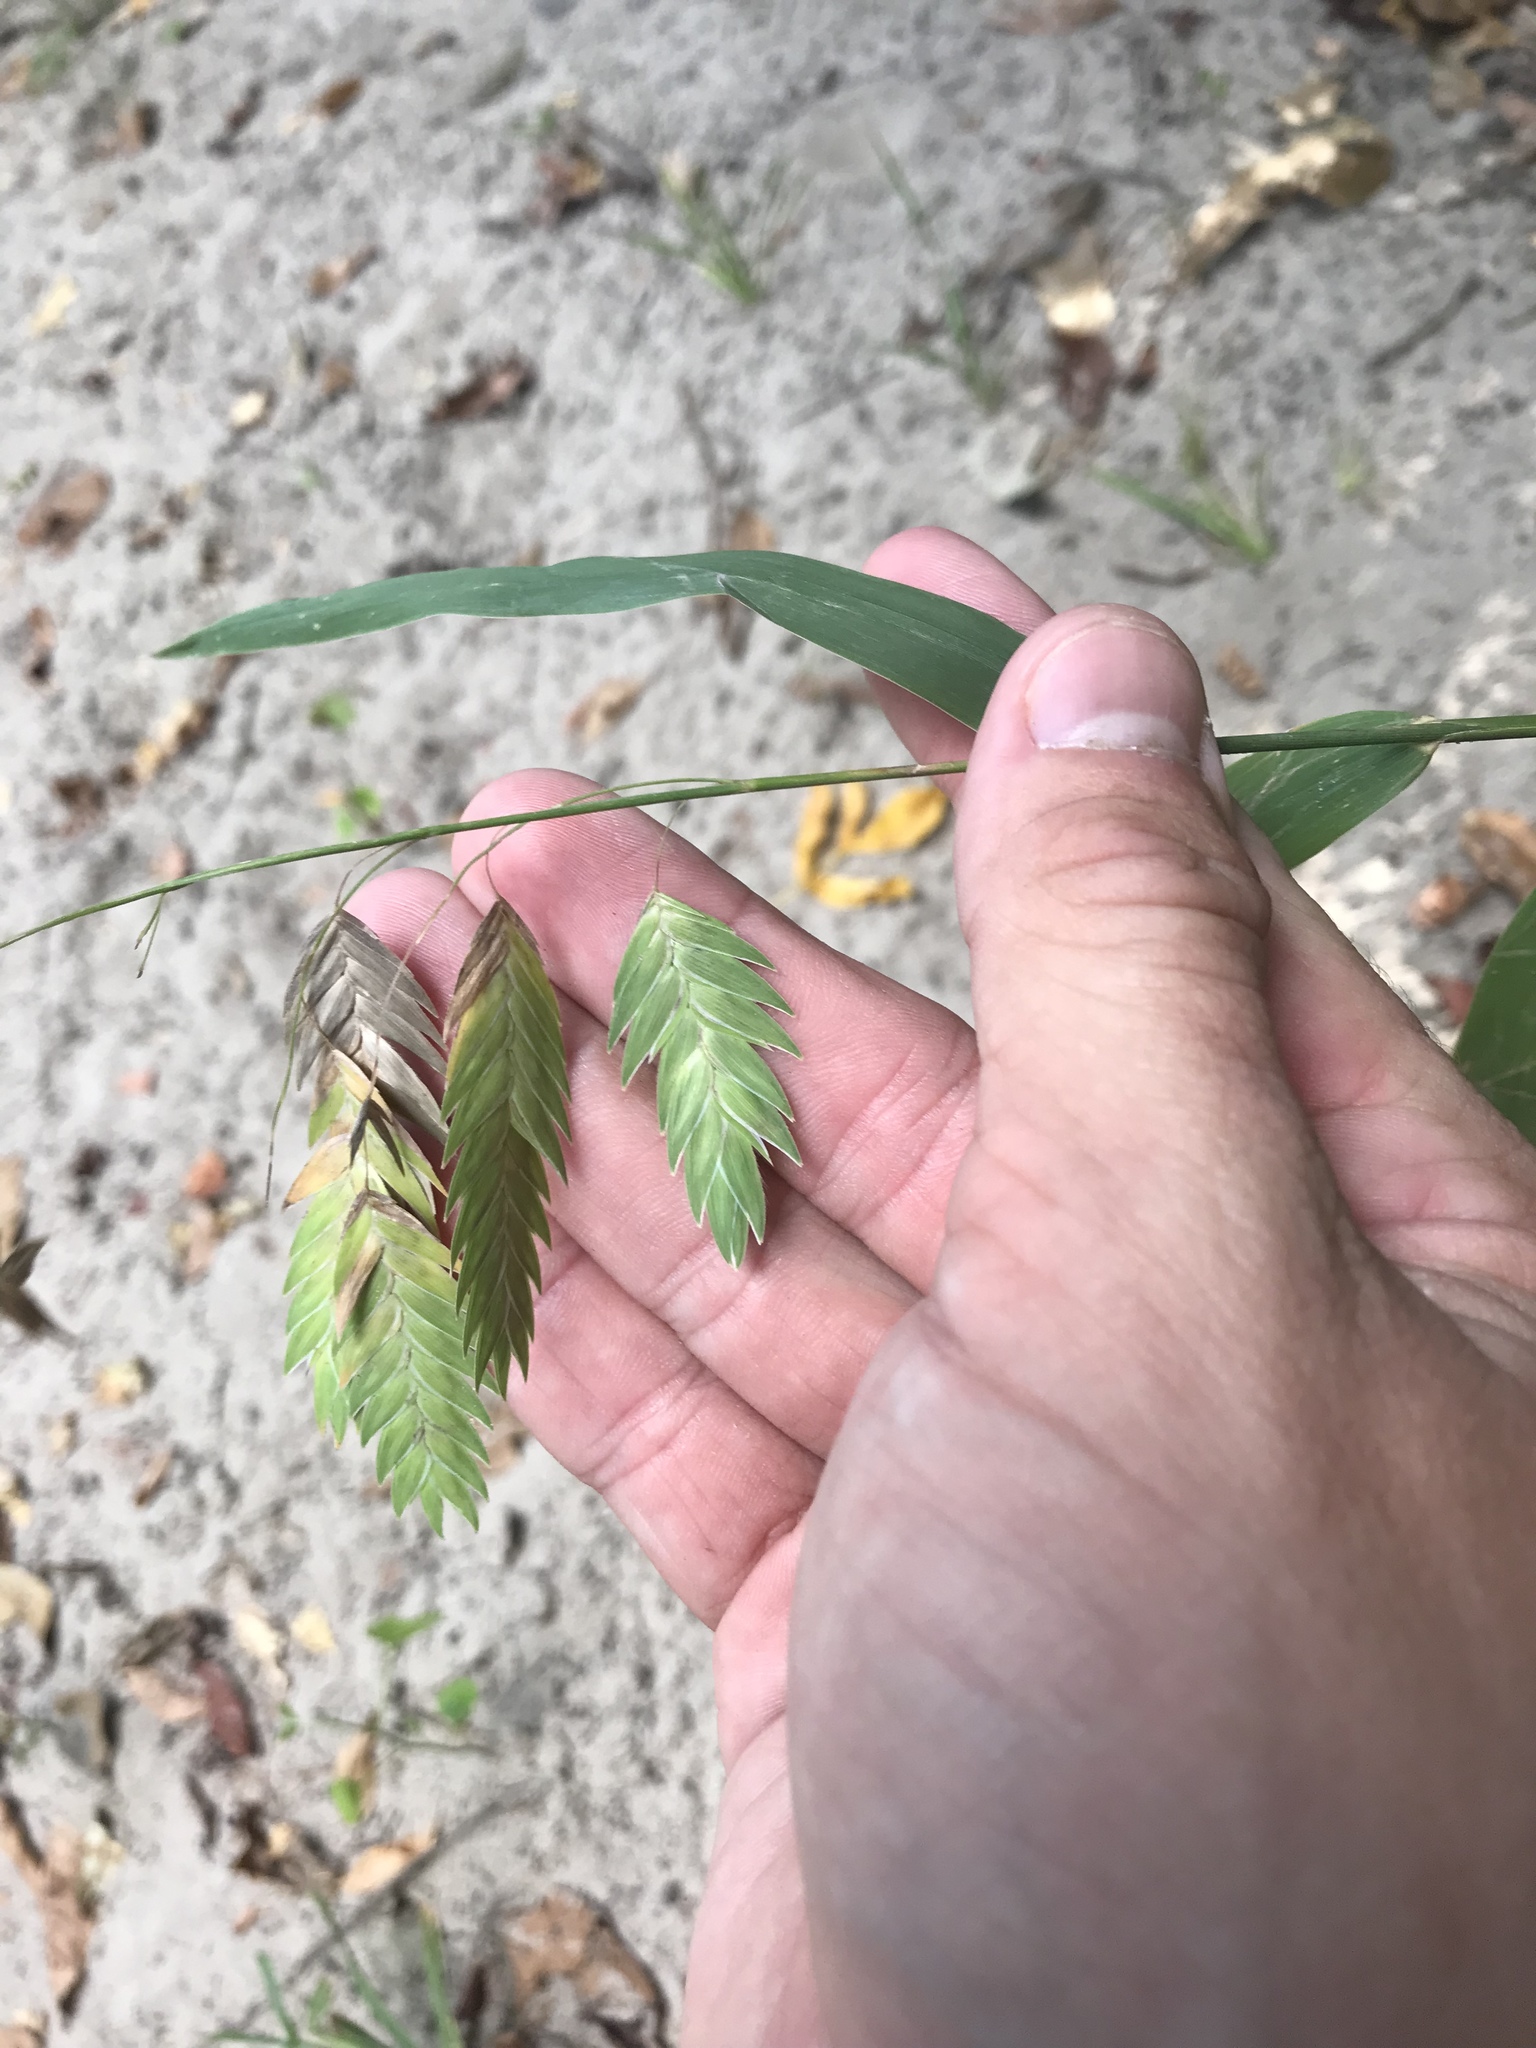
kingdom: Plantae
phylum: Tracheophyta
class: Liliopsida
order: Poales
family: Poaceae
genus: Chasmanthium
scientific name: Chasmanthium latifolium
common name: Broad-leaved chasmanthium
